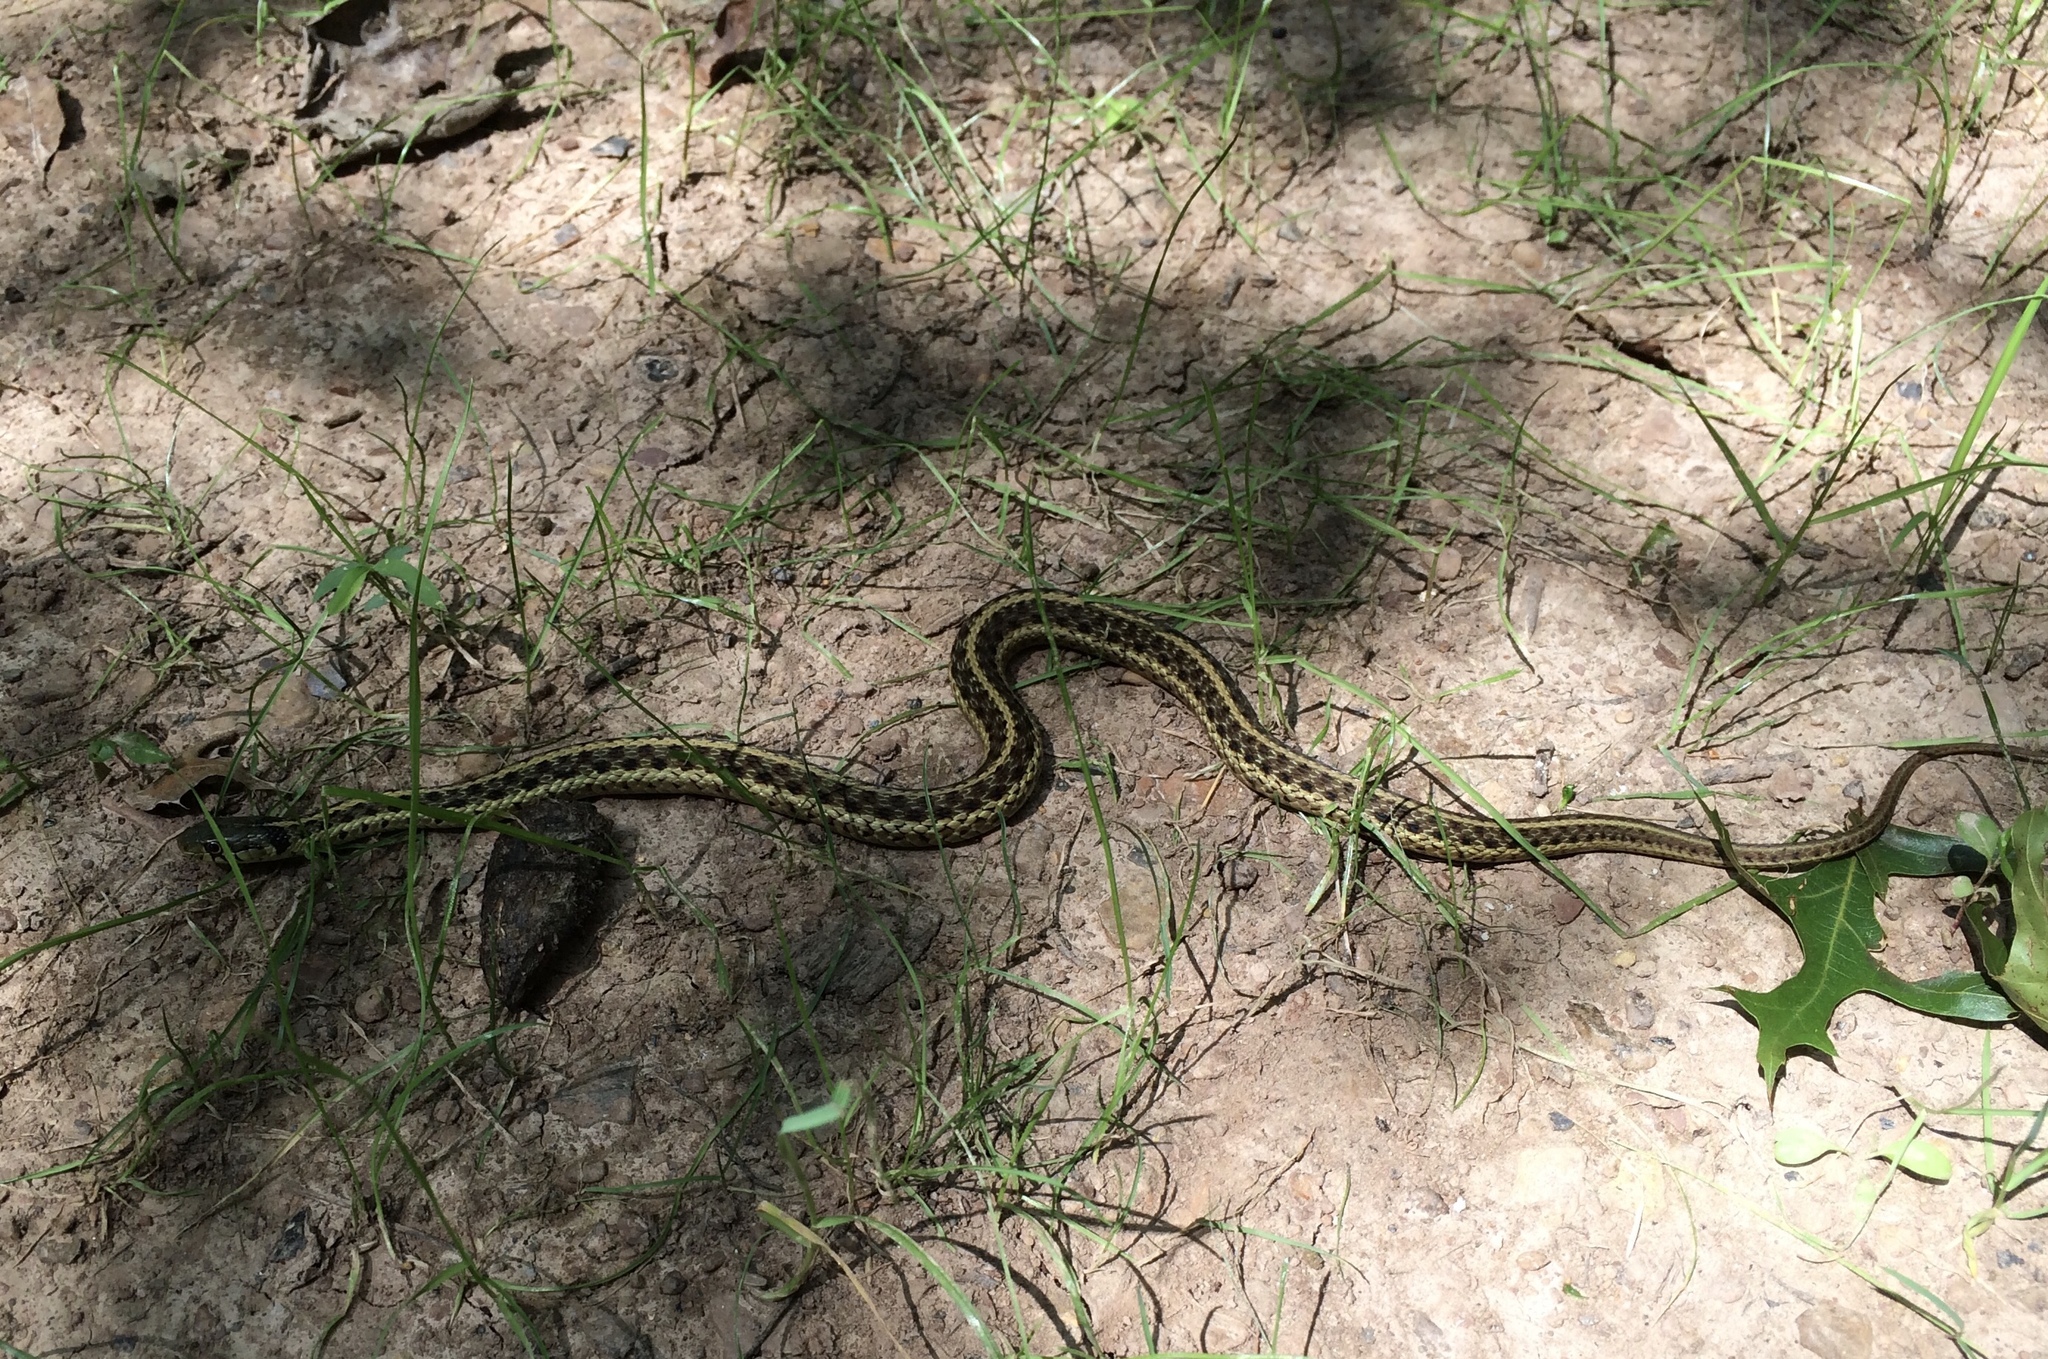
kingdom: Animalia
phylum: Chordata
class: Squamata
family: Colubridae
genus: Thamnophis
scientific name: Thamnophis sirtalis
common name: Common garter snake
